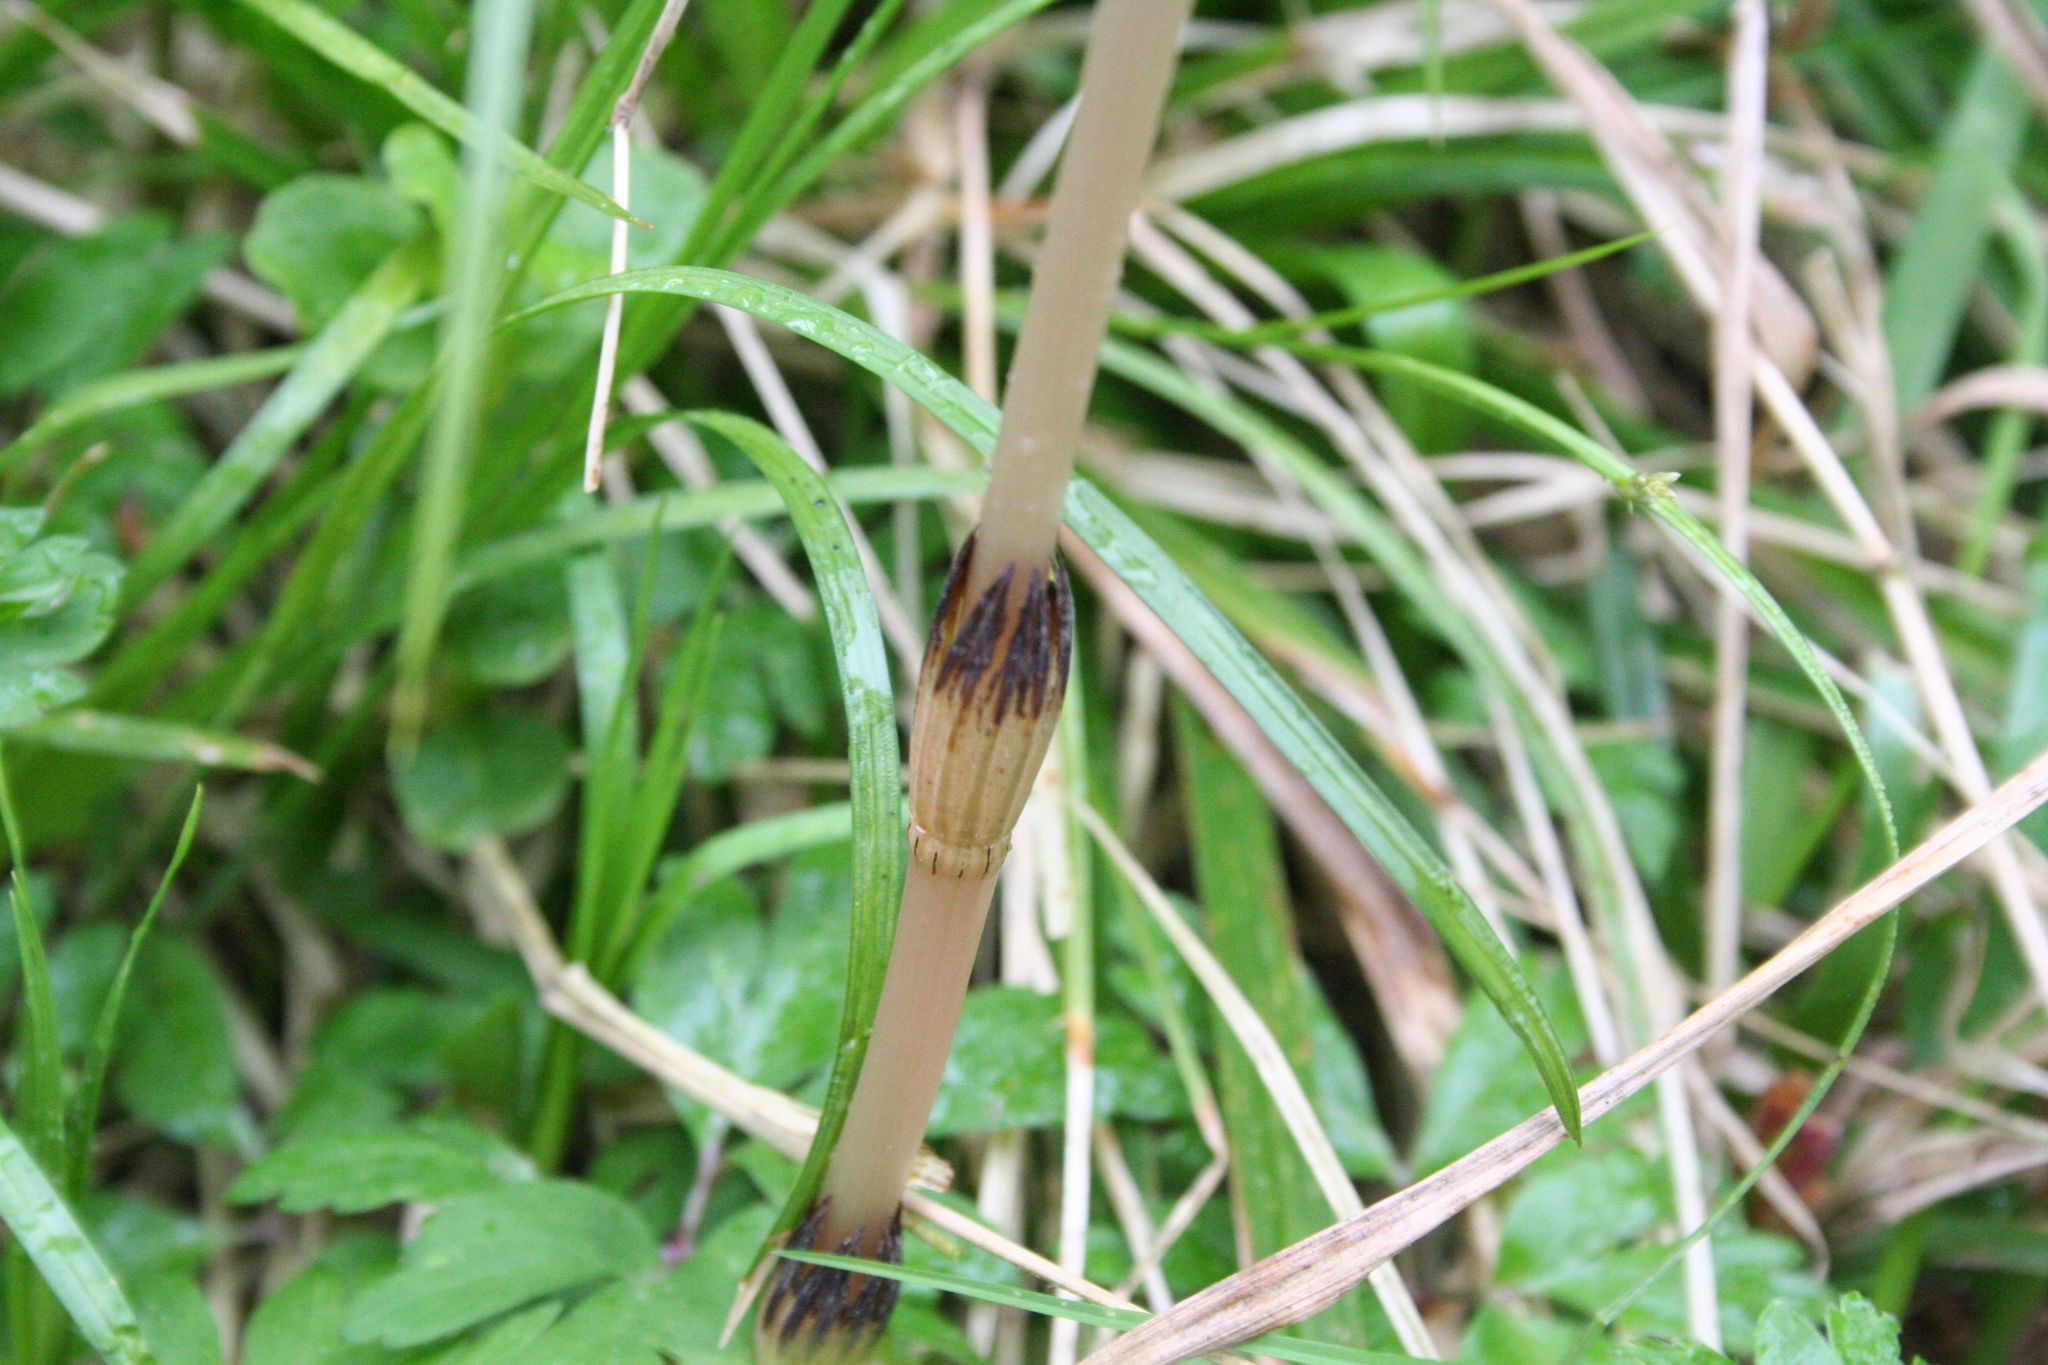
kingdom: Plantae
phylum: Tracheophyta
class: Polypodiopsida
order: Equisetales
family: Equisetaceae
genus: Equisetum
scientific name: Equisetum arvense
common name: Field horsetail
